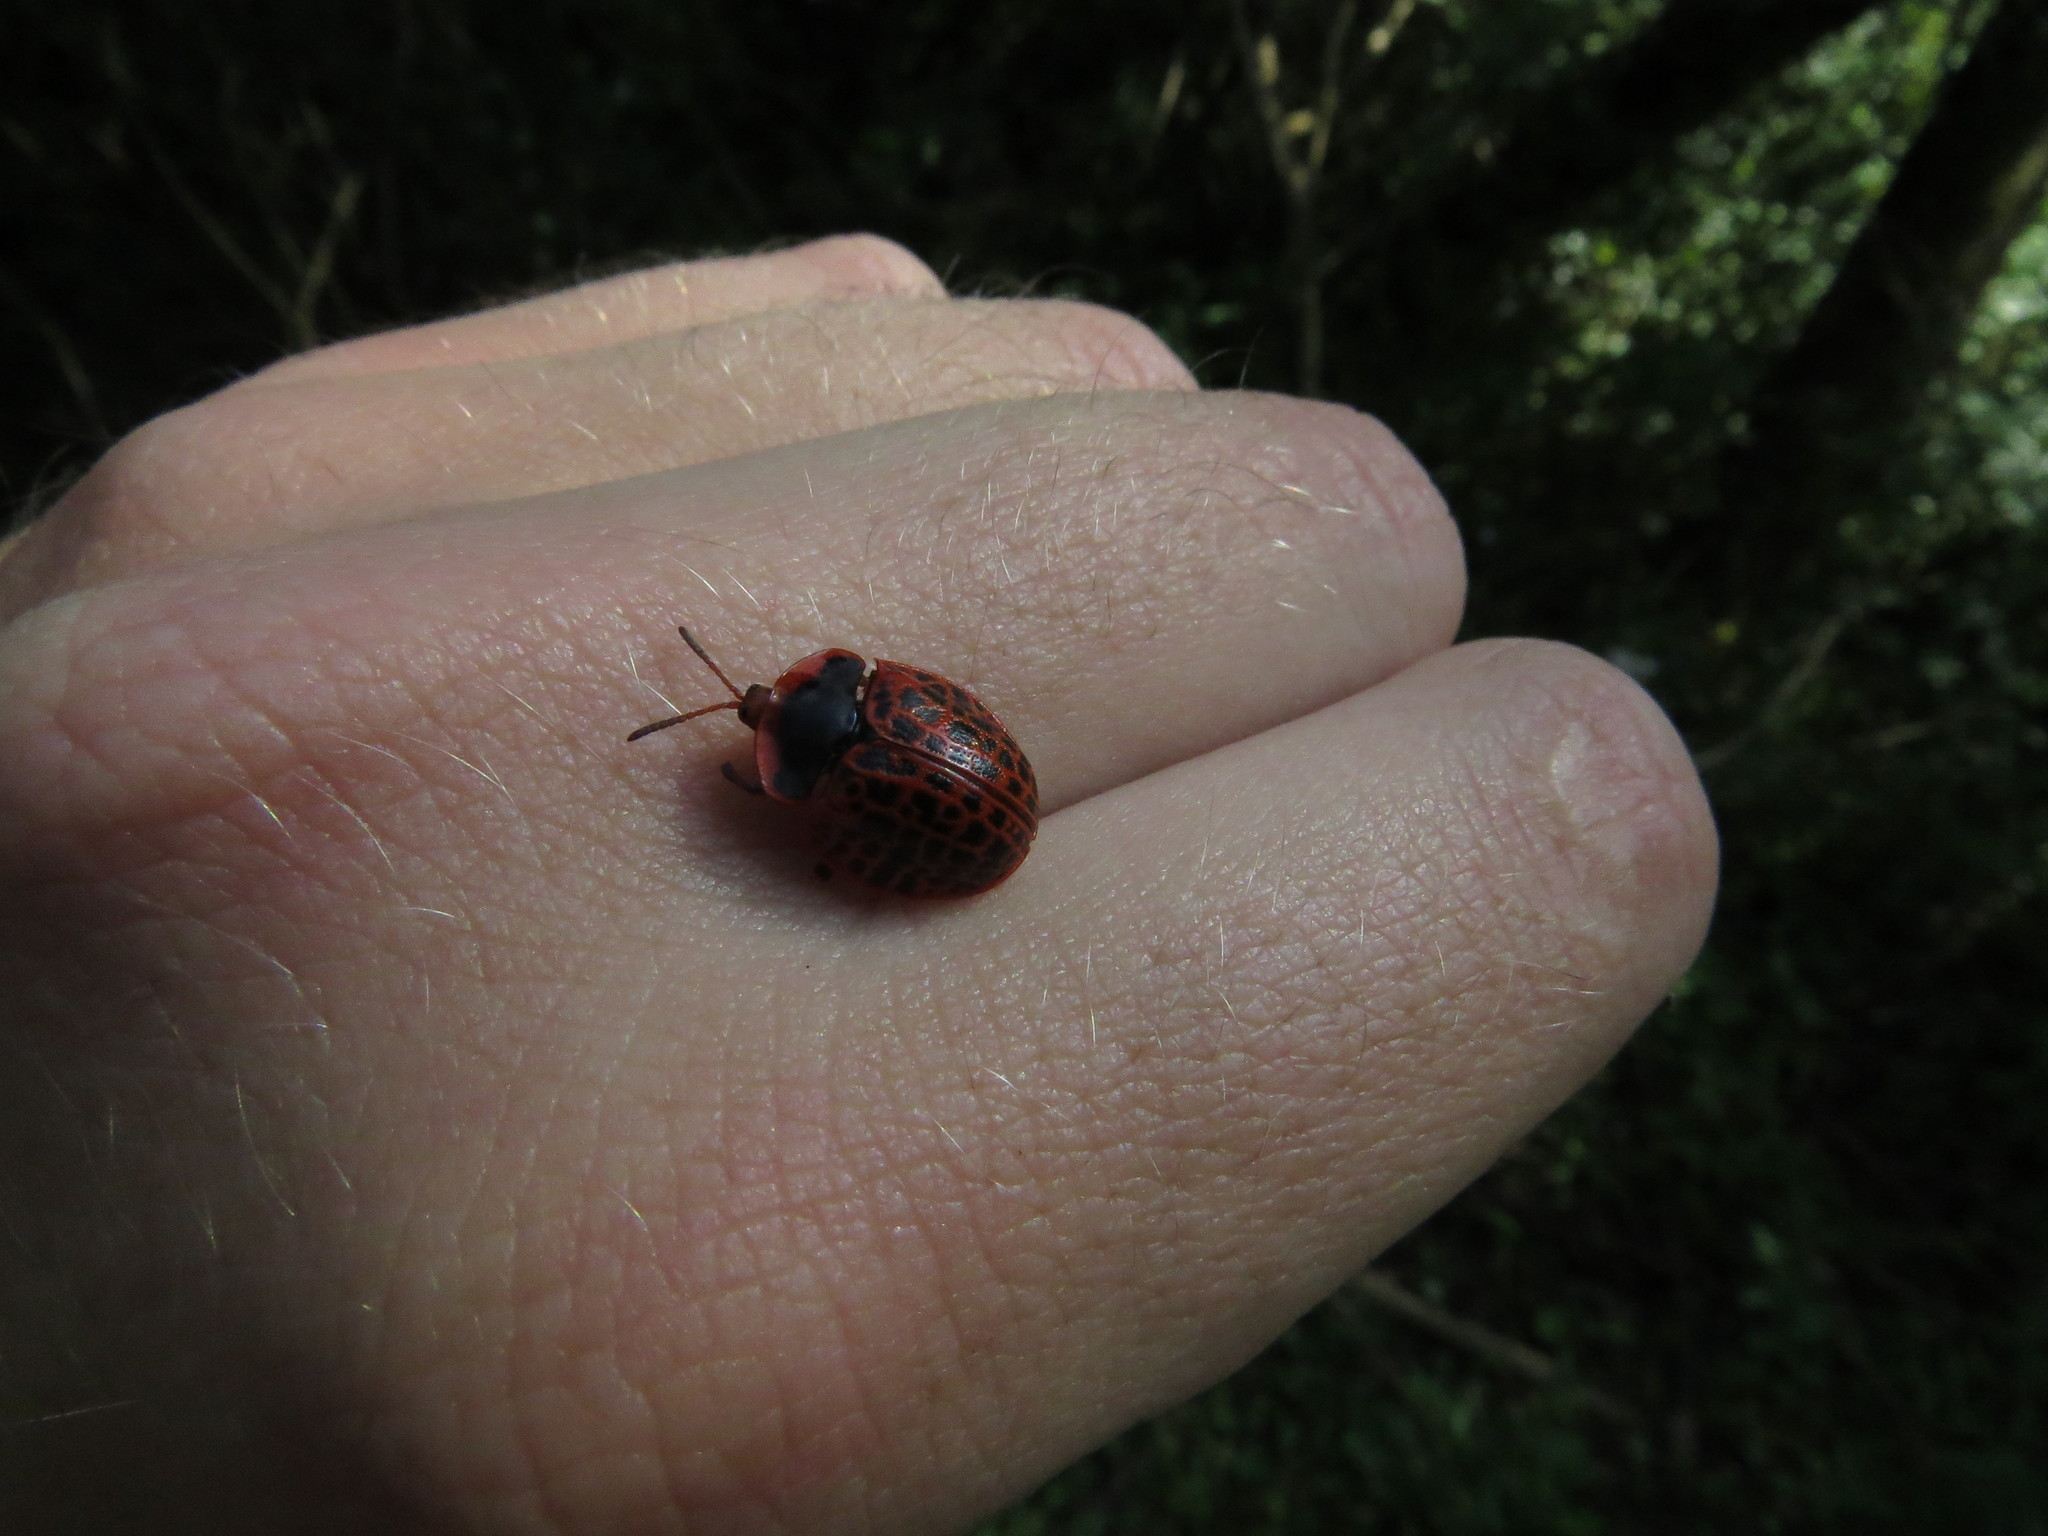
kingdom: Animalia
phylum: Arthropoda
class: Insecta
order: Coleoptera
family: Chrysomelidae
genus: Botanochara
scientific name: Botanochara macularia
